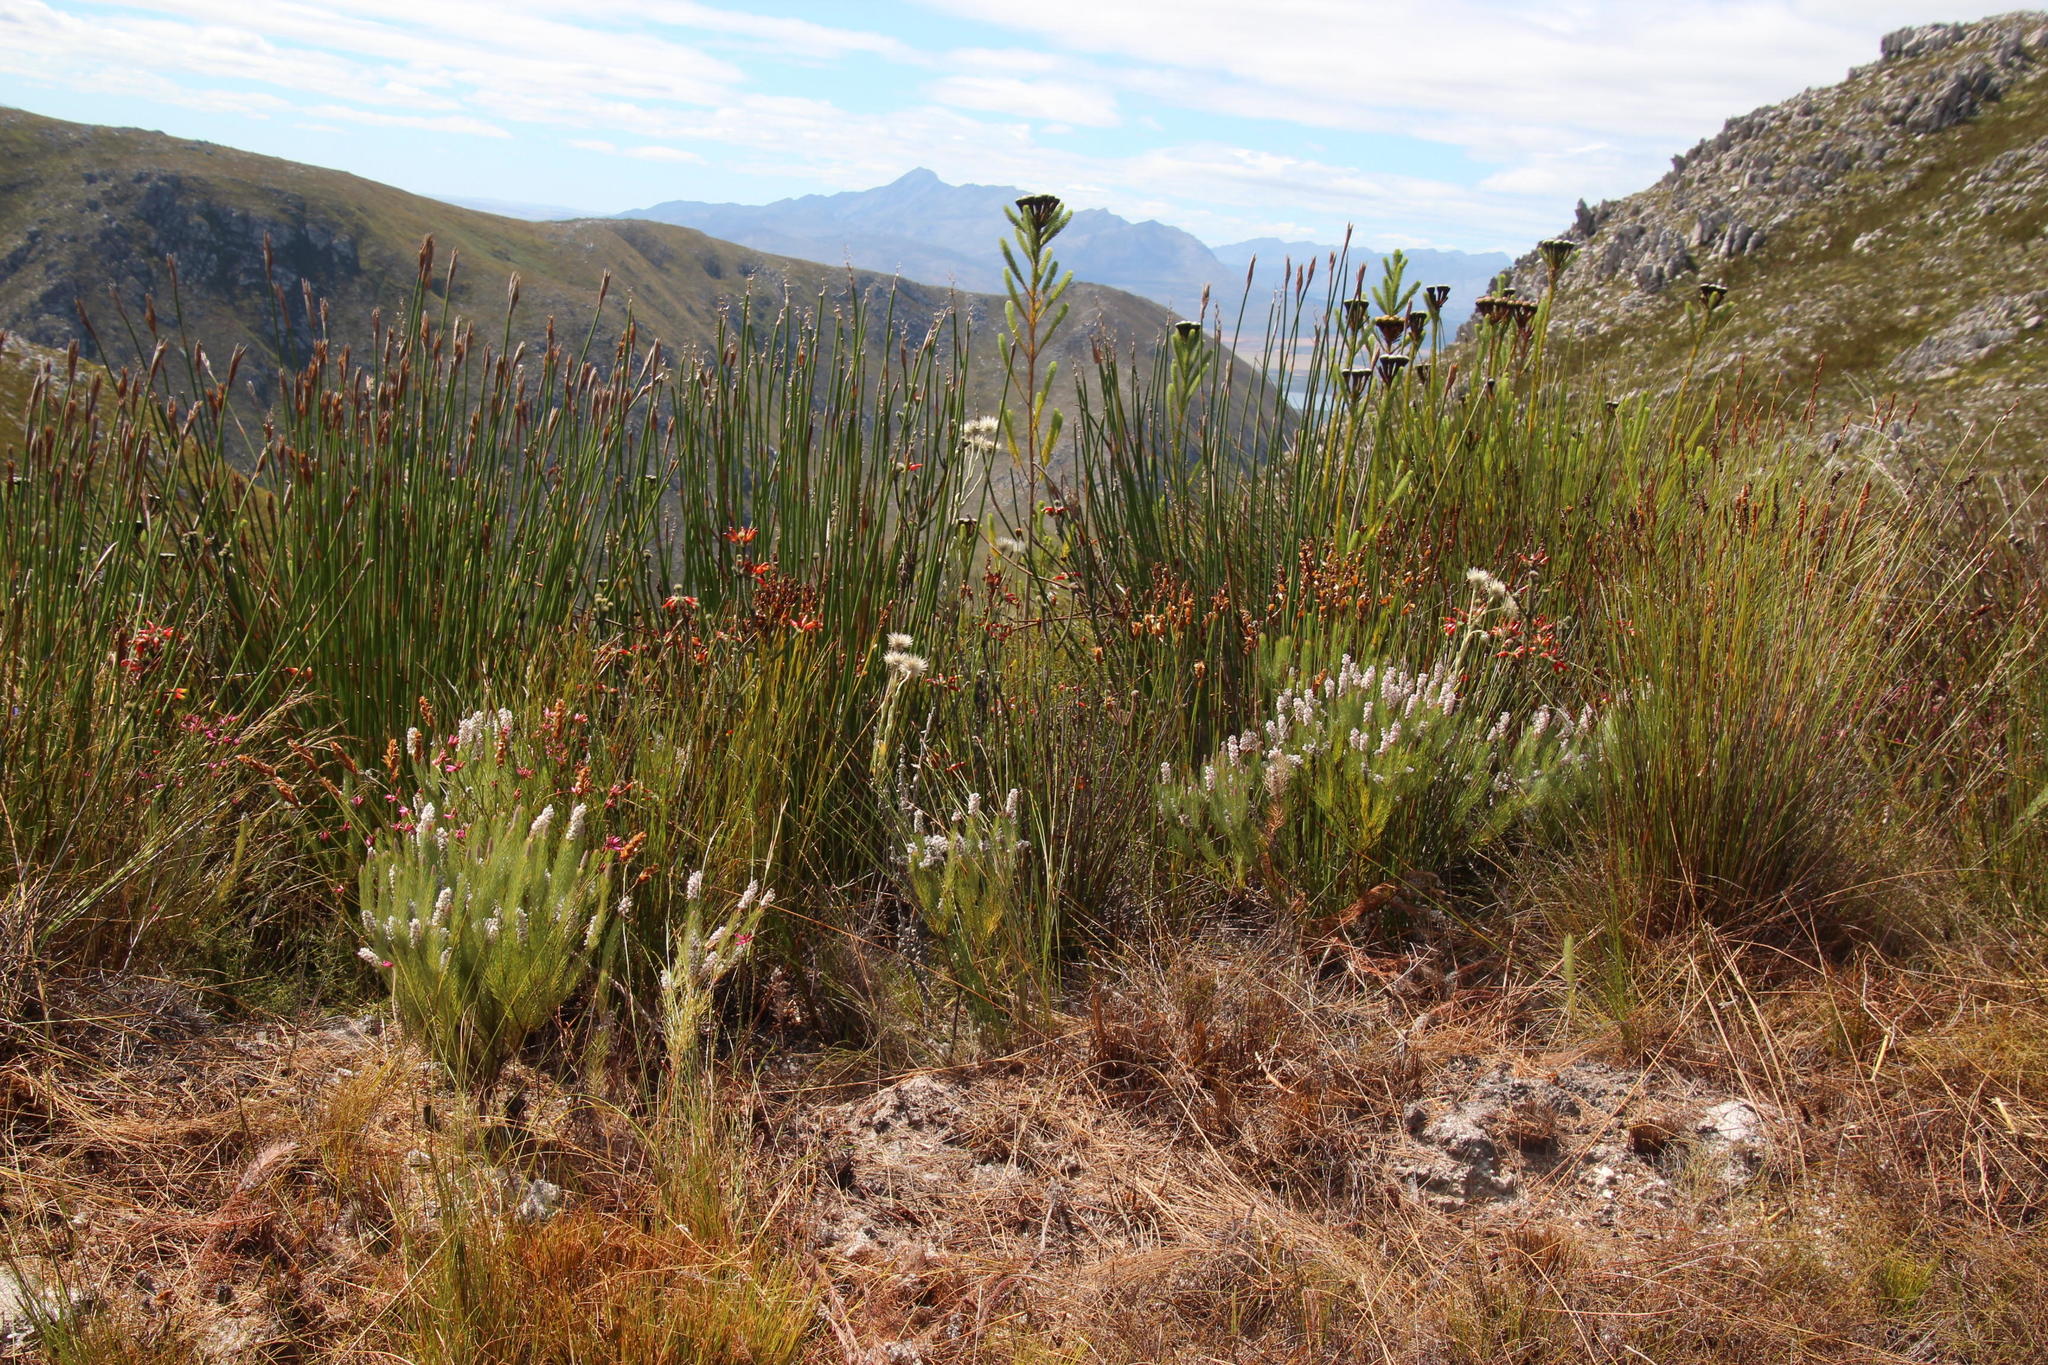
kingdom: Plantae
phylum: Tracheophyta
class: Magnoliopsida
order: Proteales
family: Proteaceae
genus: Spatalla
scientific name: Spatalla mollis
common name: Woolly spoon
